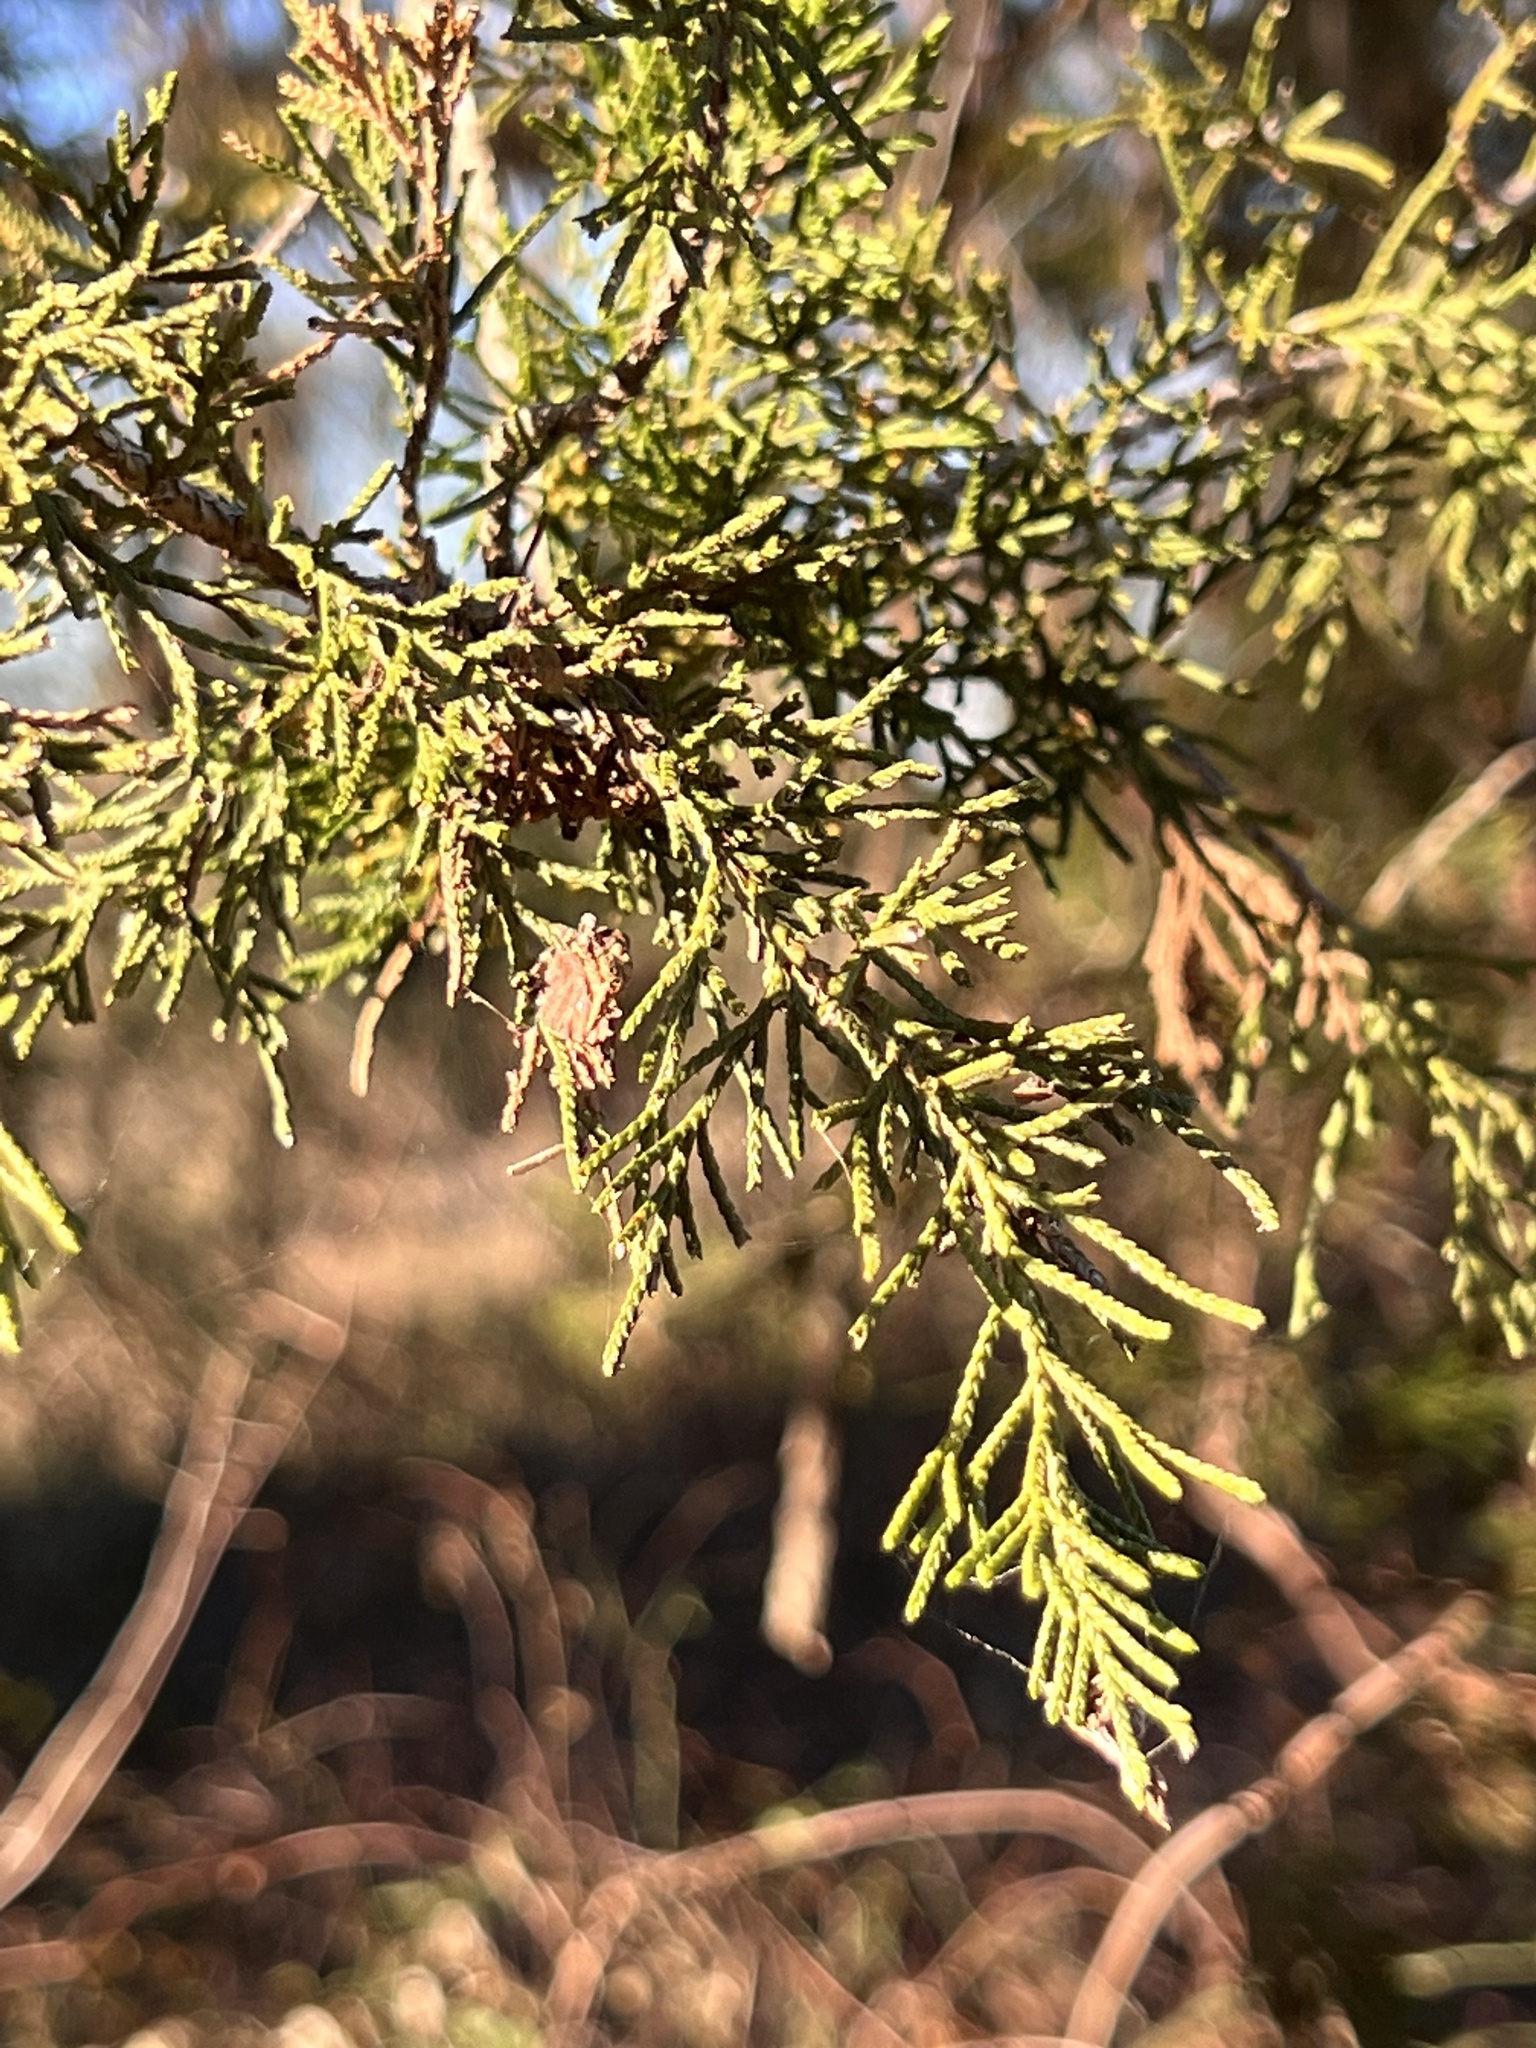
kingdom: Plantae
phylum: Tracheophyta
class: Pinopsida
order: Pinales
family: Cupressaceae
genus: Juniperus
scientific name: Juniperus virginiana
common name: Red juniper
